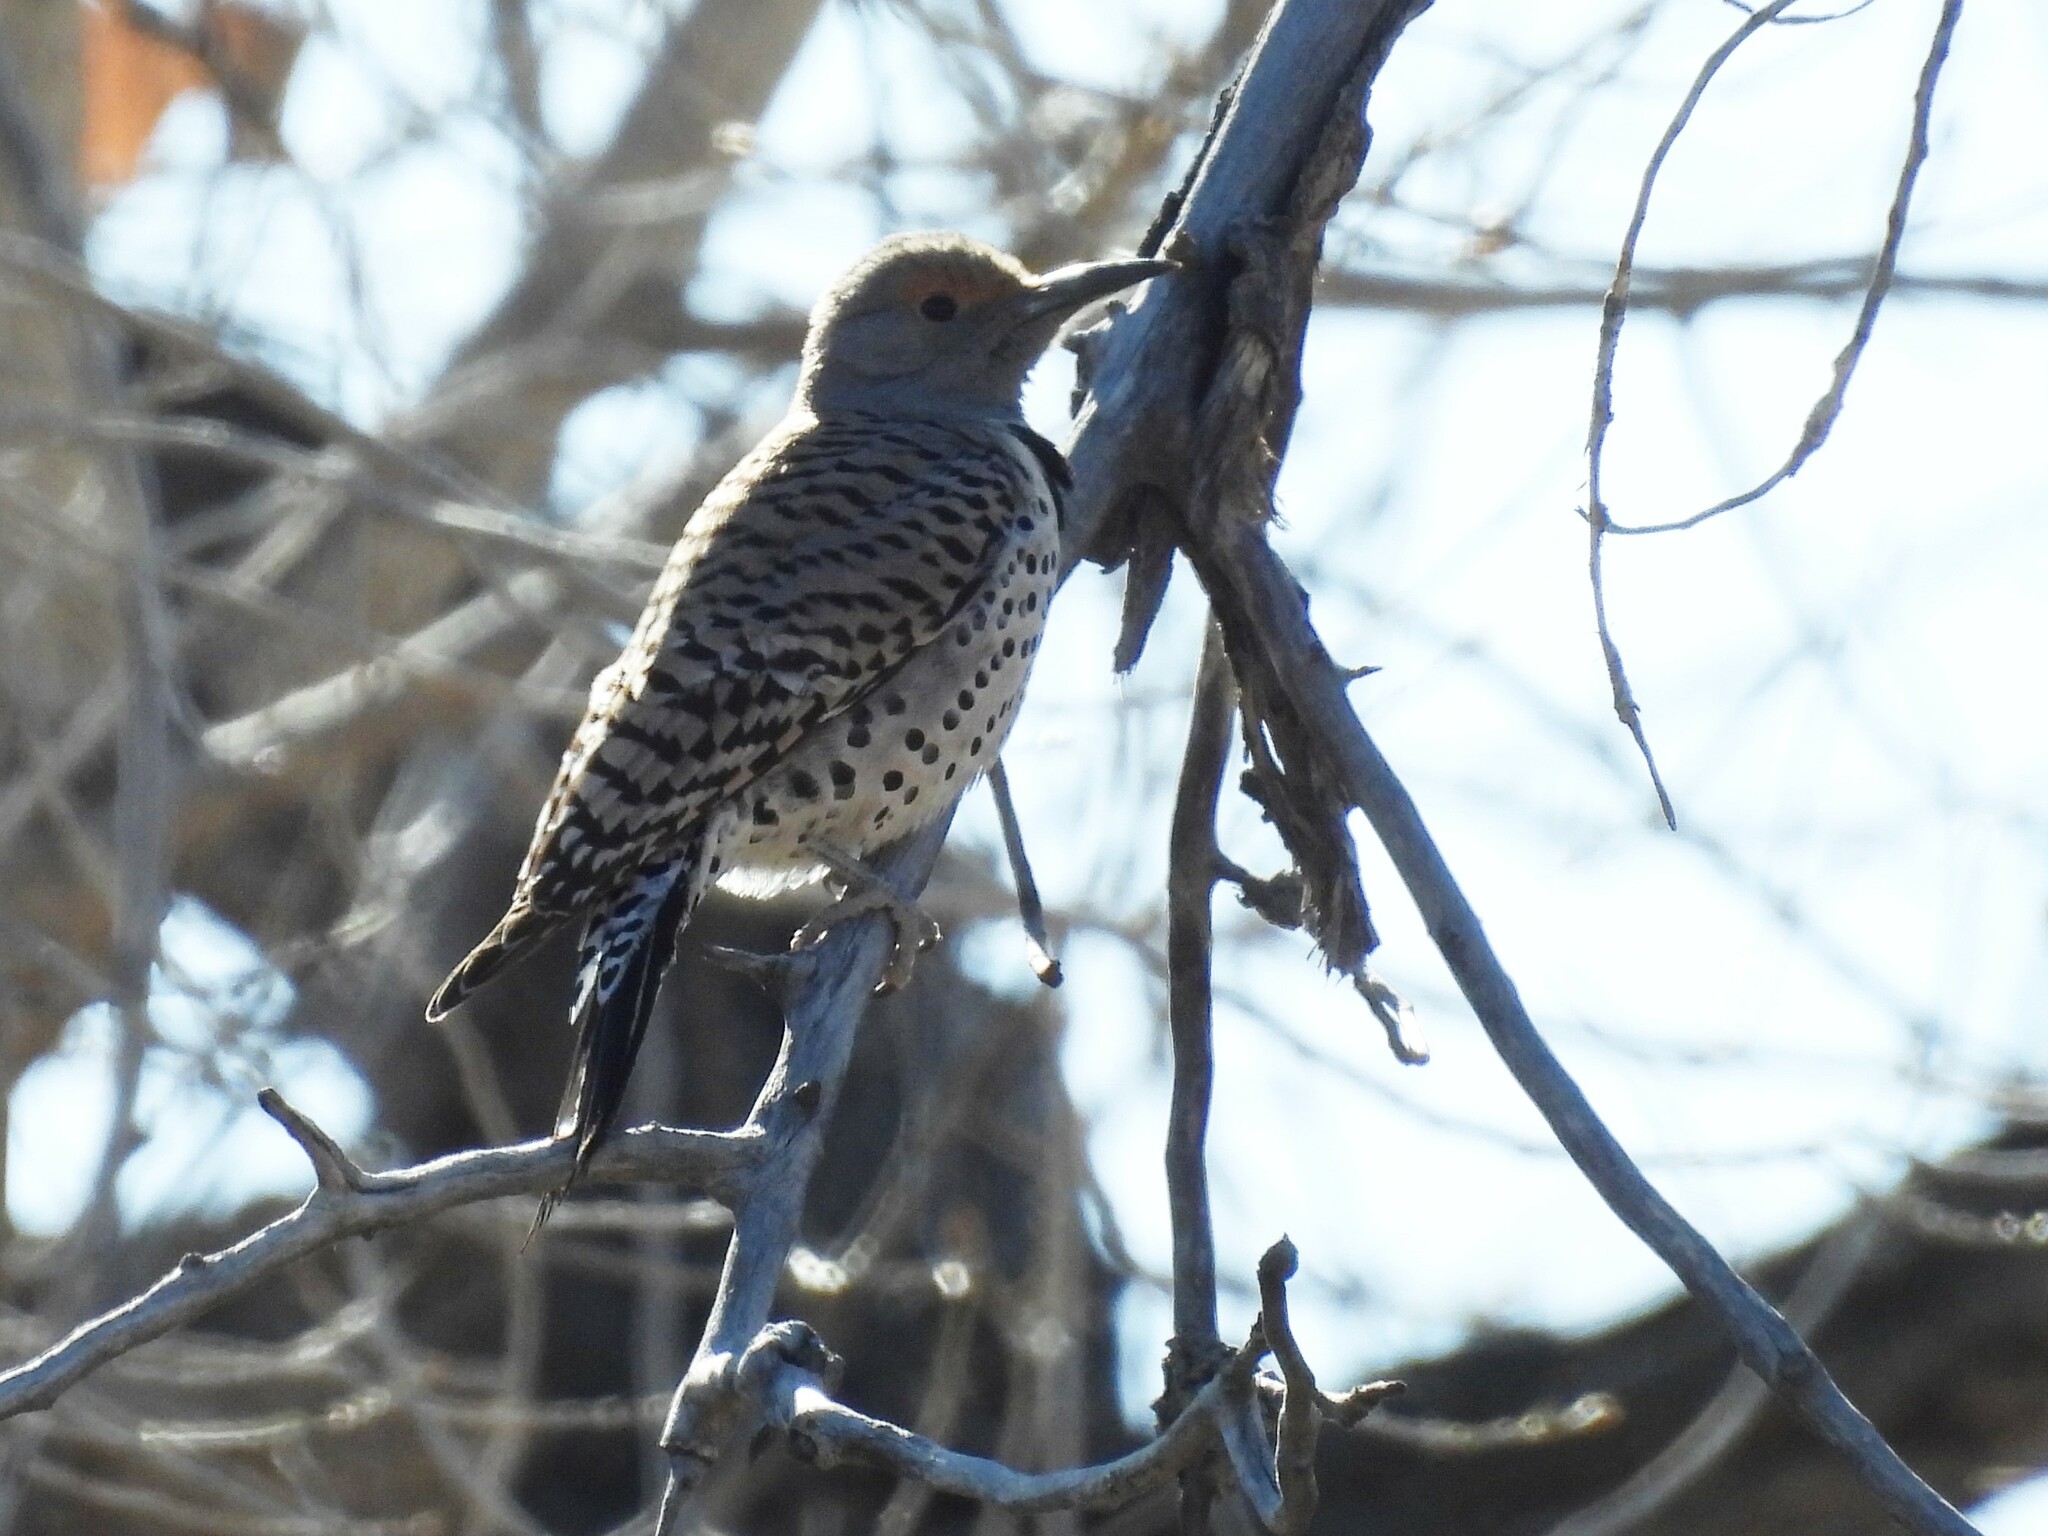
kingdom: Animalia
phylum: Chordata
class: Aves
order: Piciformes
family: Picidae
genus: Colaptes
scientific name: Colaptes auratus
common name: Northern flicker
